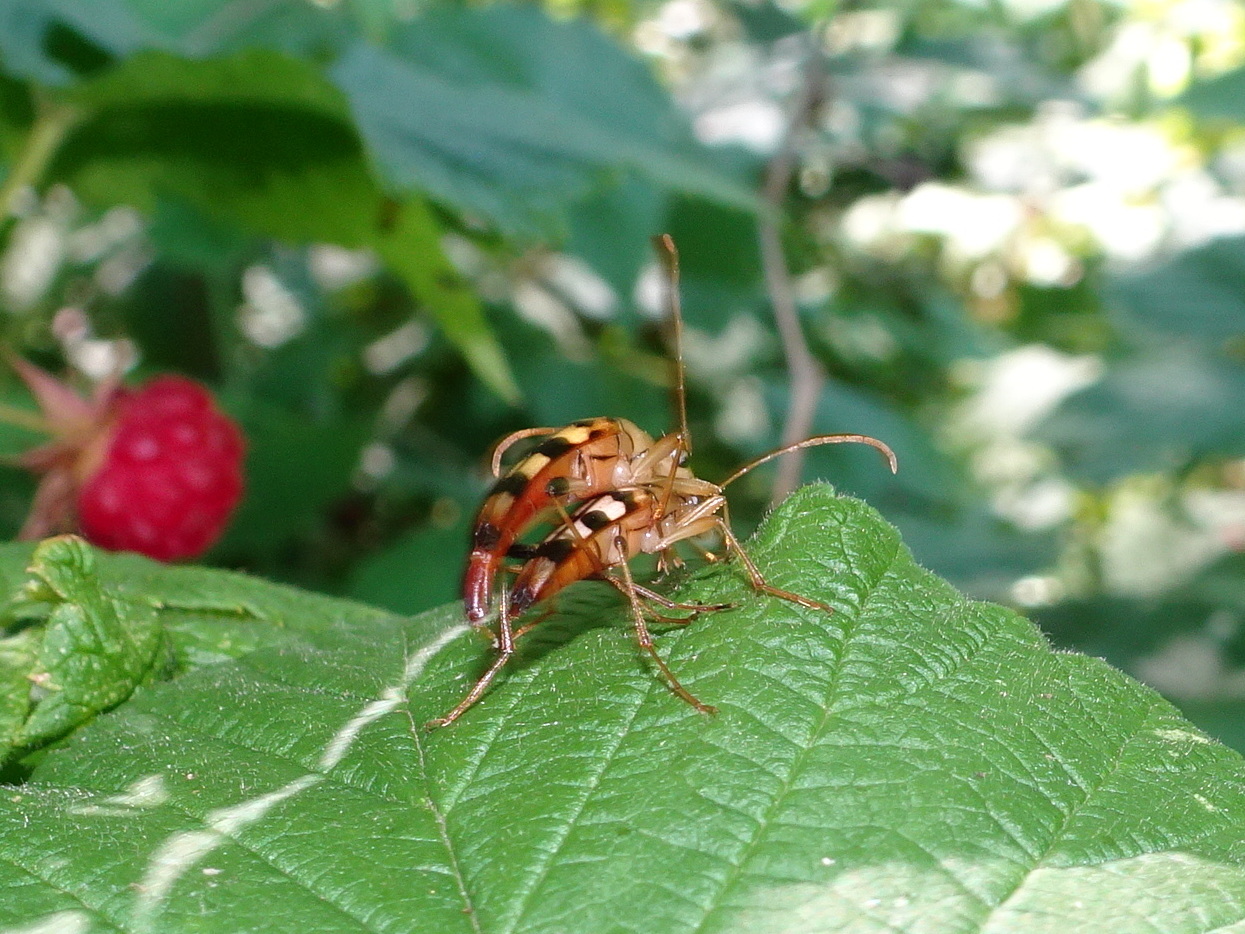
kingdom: Animalia
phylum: Arthropoda
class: Insecta
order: Coleoptera
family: Cerambycidae
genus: Strangalia
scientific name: Strangalia luteicornis
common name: Yellow-horned flower longhorn beetle
